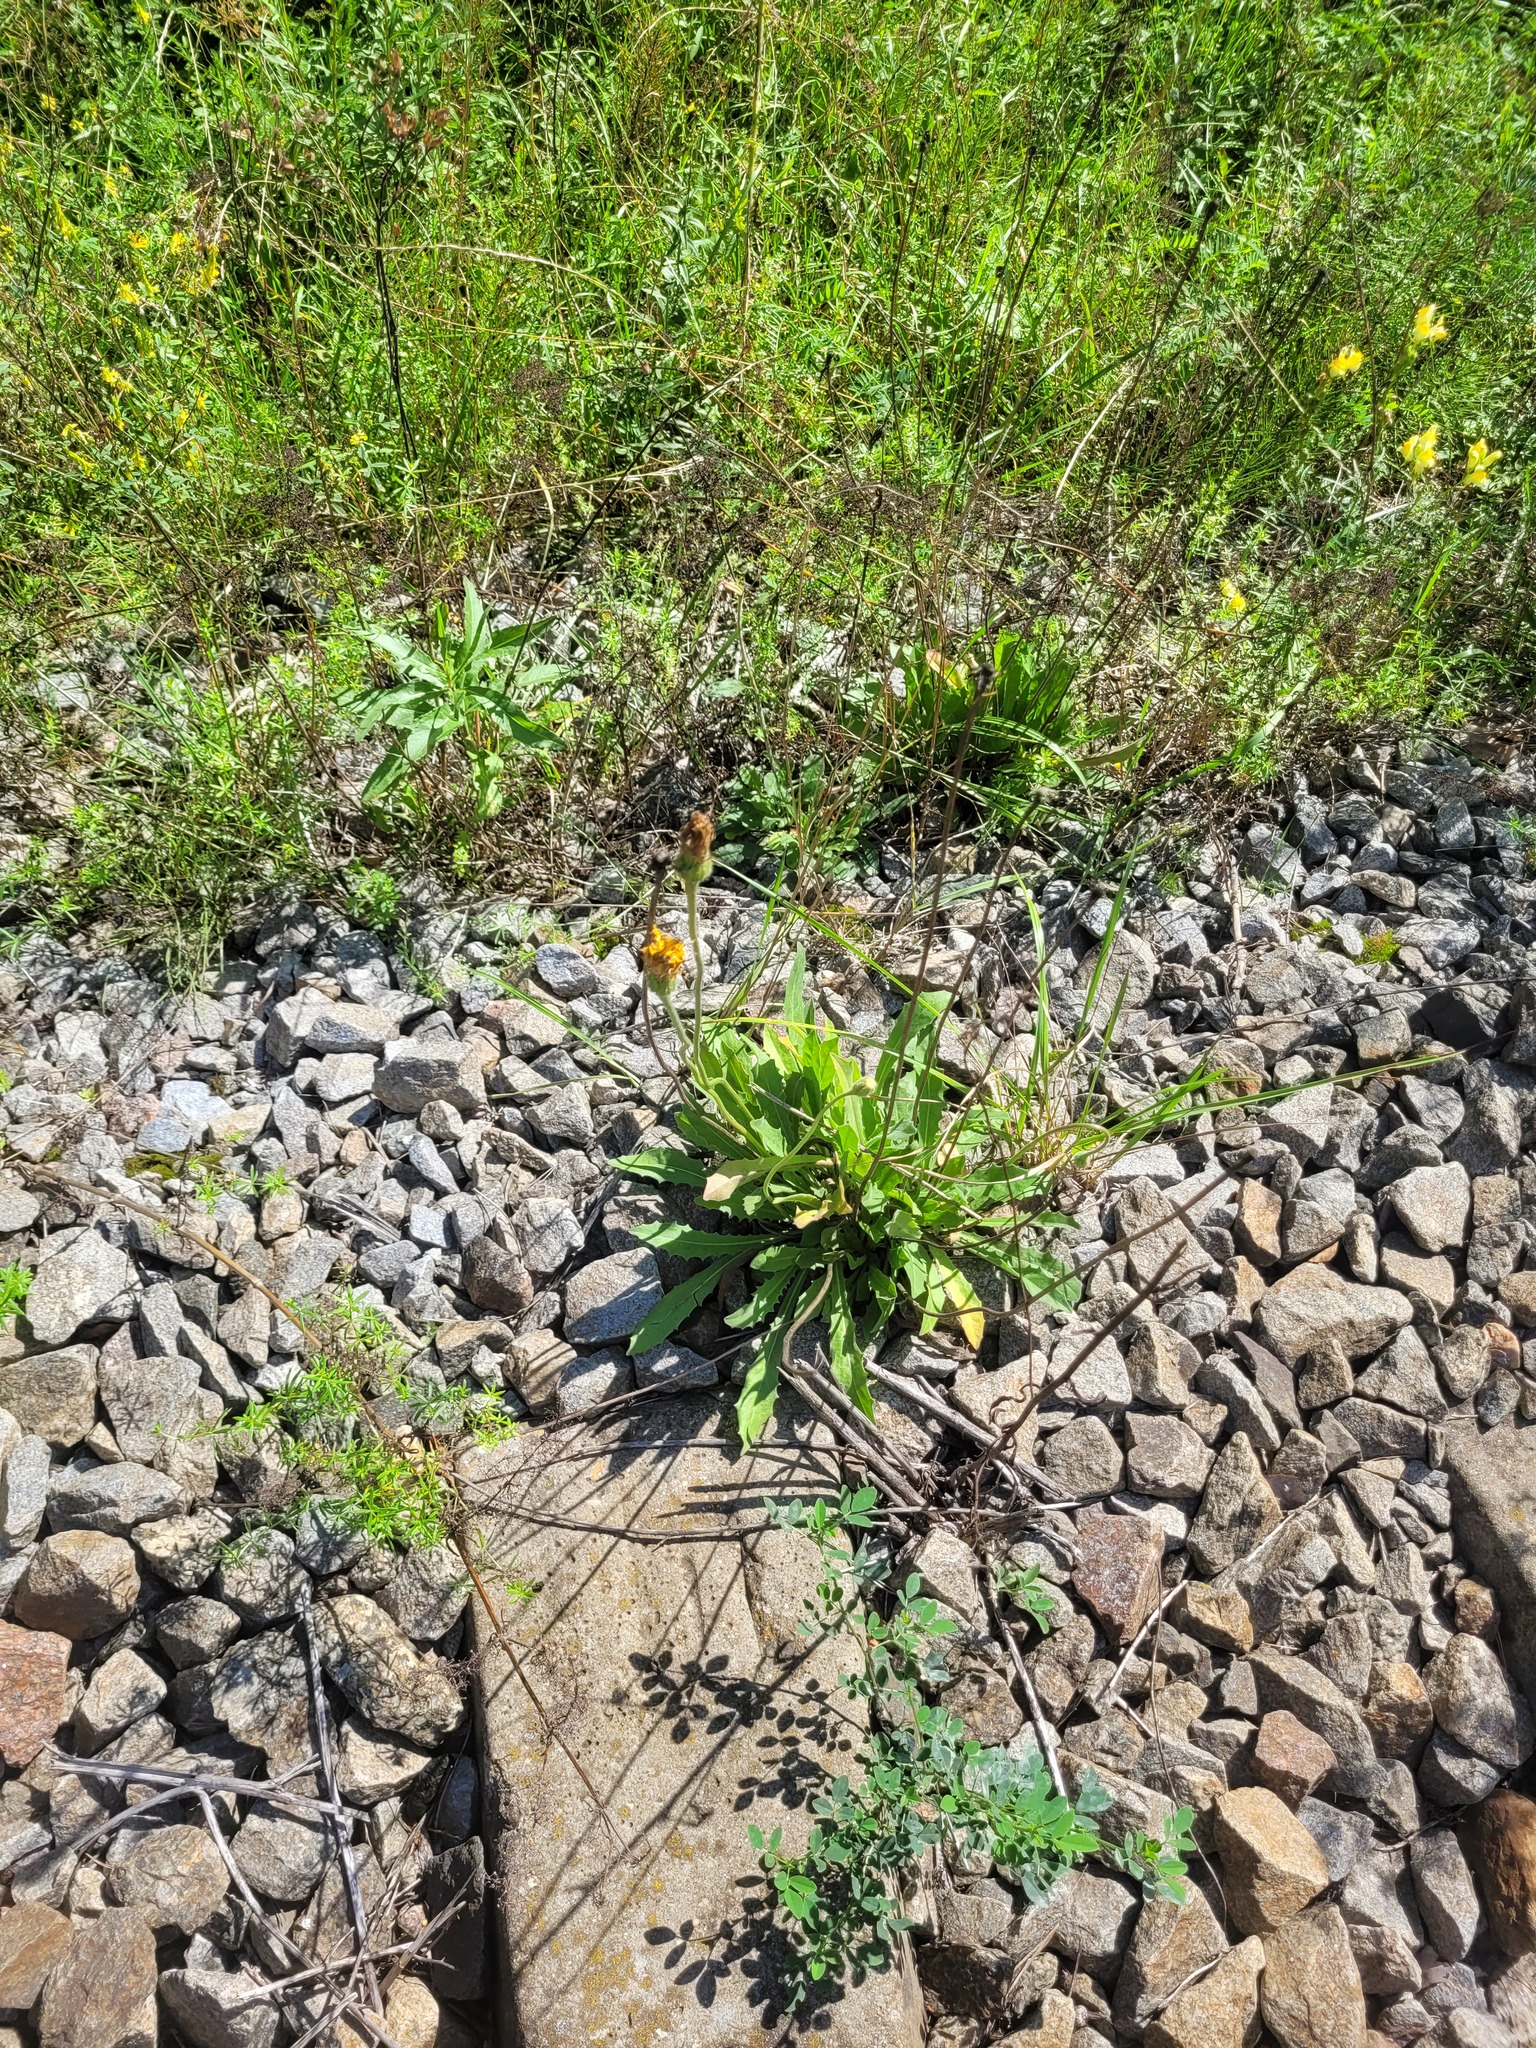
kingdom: Plantae
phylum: Tracheophyta
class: Magnoliopsida
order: Asterales
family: Asteraceae
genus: Leontodon
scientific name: Leontodon hispidus
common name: Rough hawkbit
